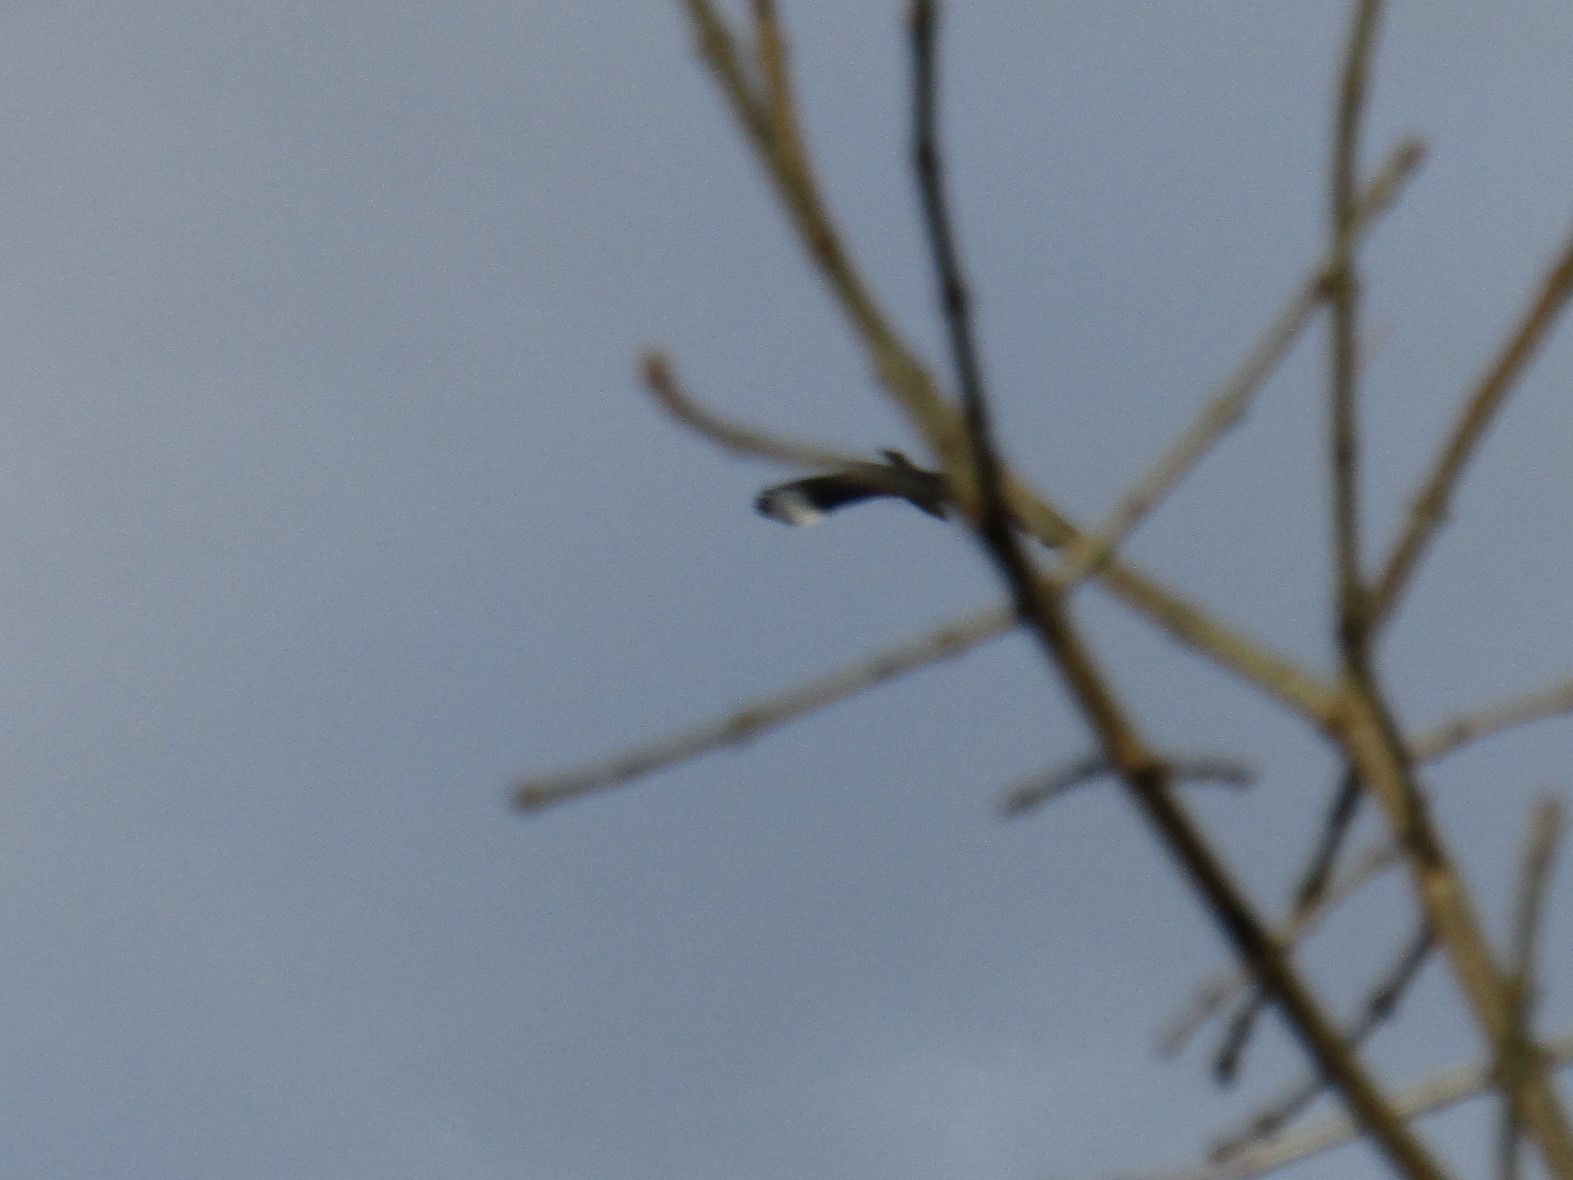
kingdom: Animalia
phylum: Chordata
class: Aves
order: Falconiformes
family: Falconidae
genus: Caracara
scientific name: Caracara plancus
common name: Southern caracara
